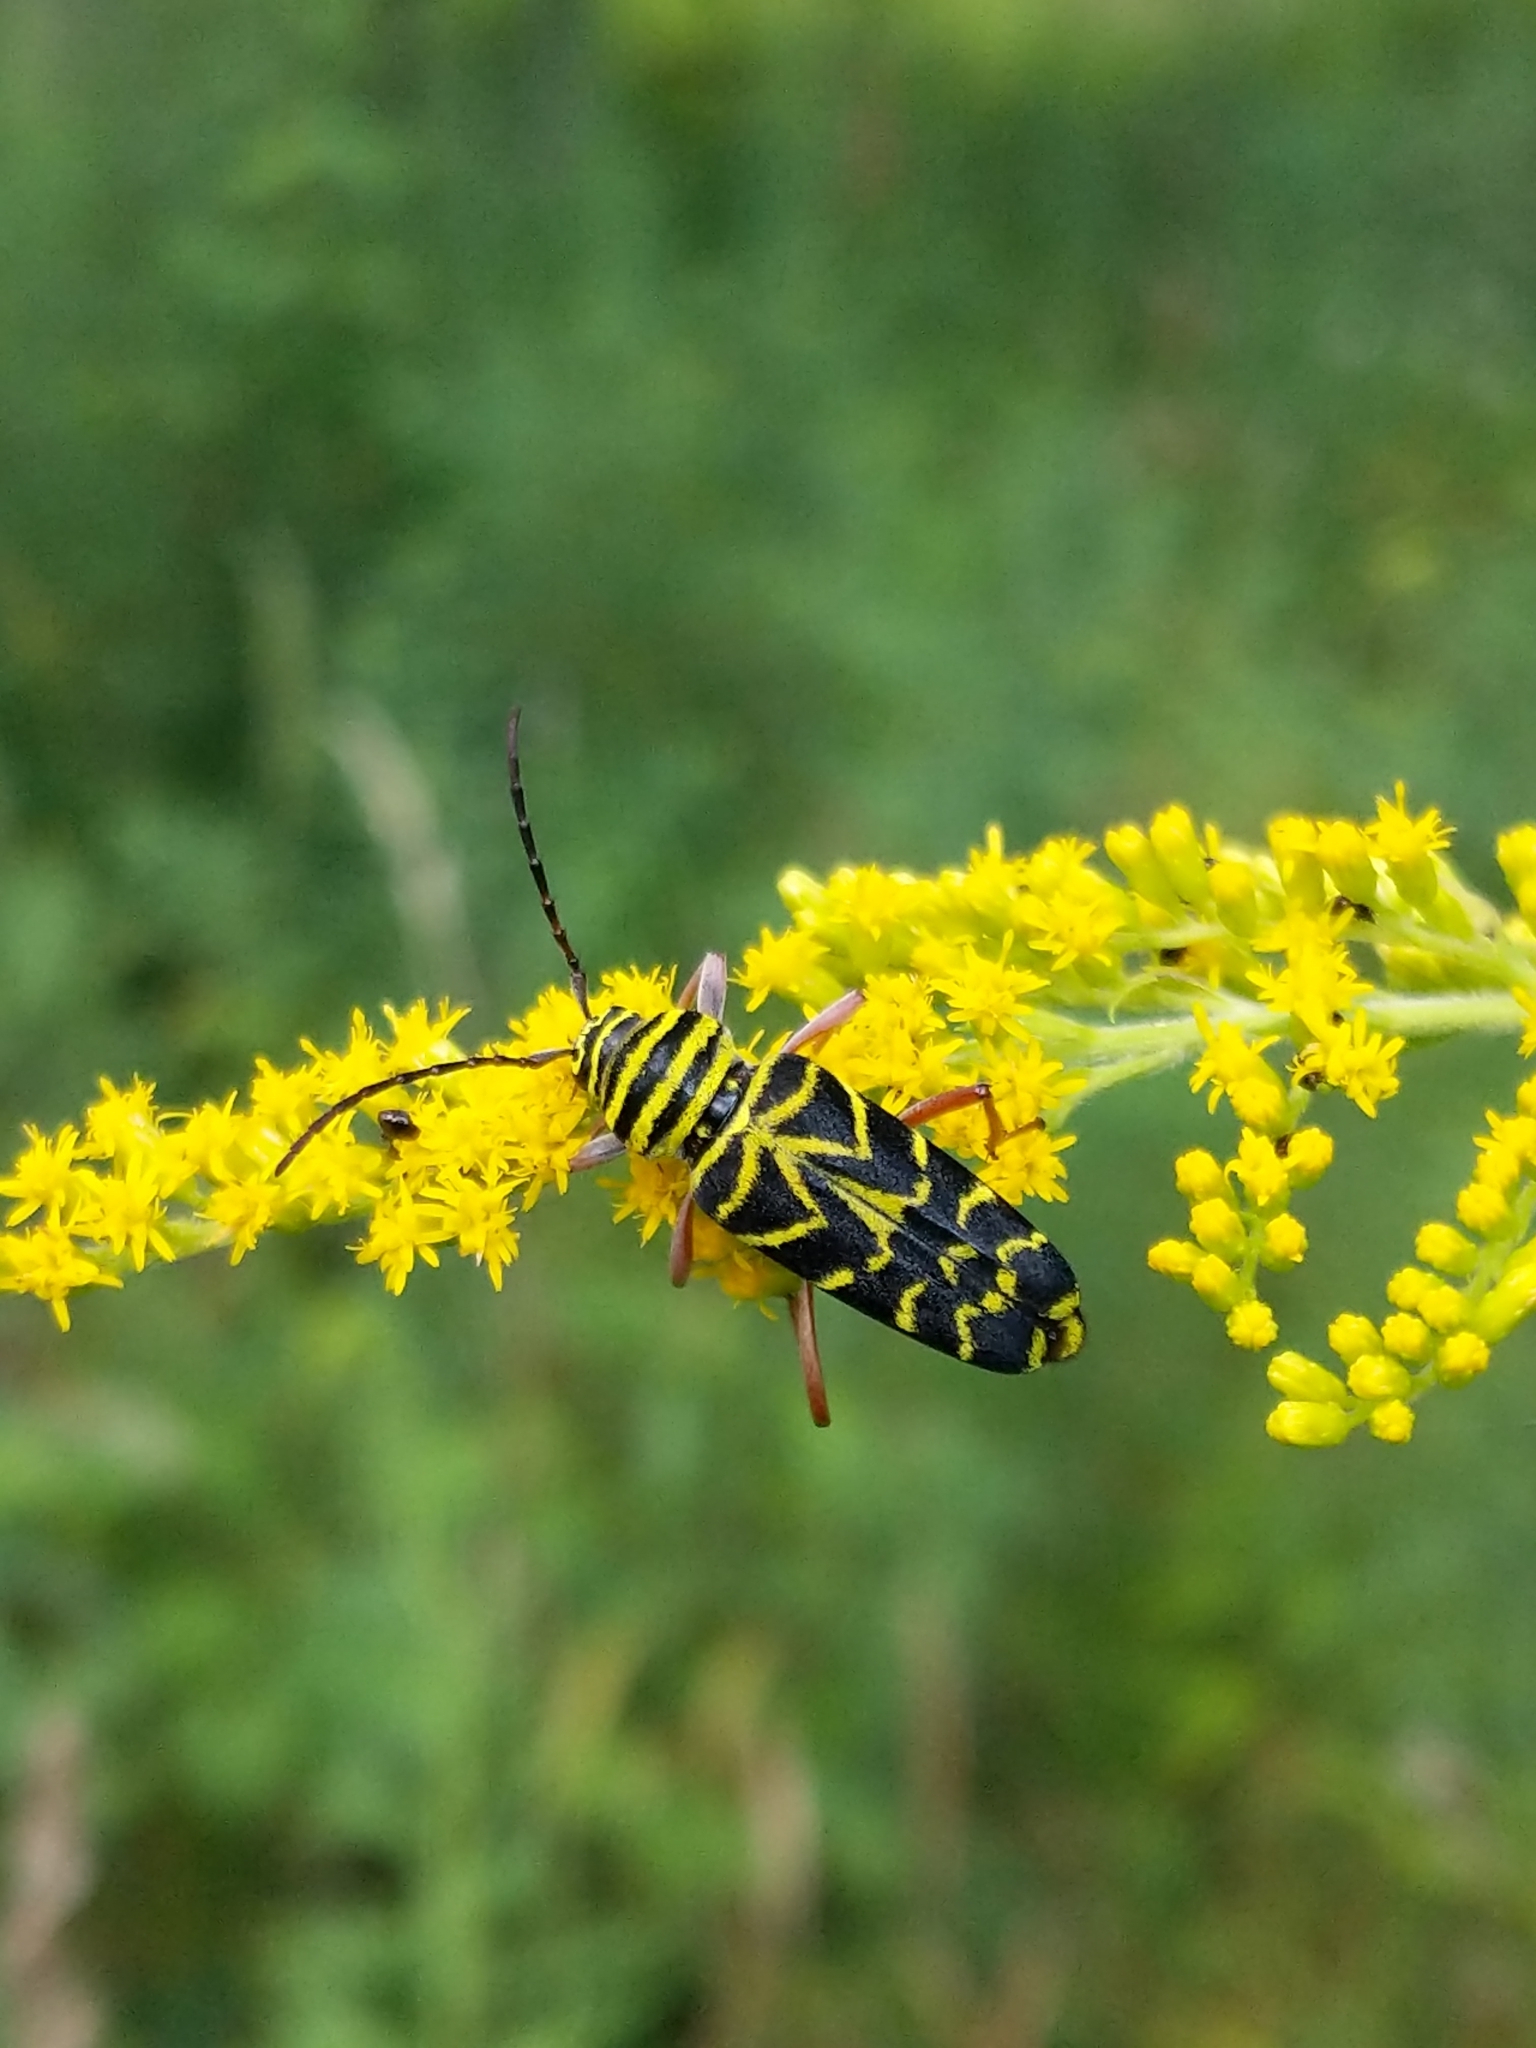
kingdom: Animalia
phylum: Arthropoda
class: Insecta
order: Coleoptera
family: Cerambycidae
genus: Megacyllene
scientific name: Megacyllene robiniae
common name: Locust borer
